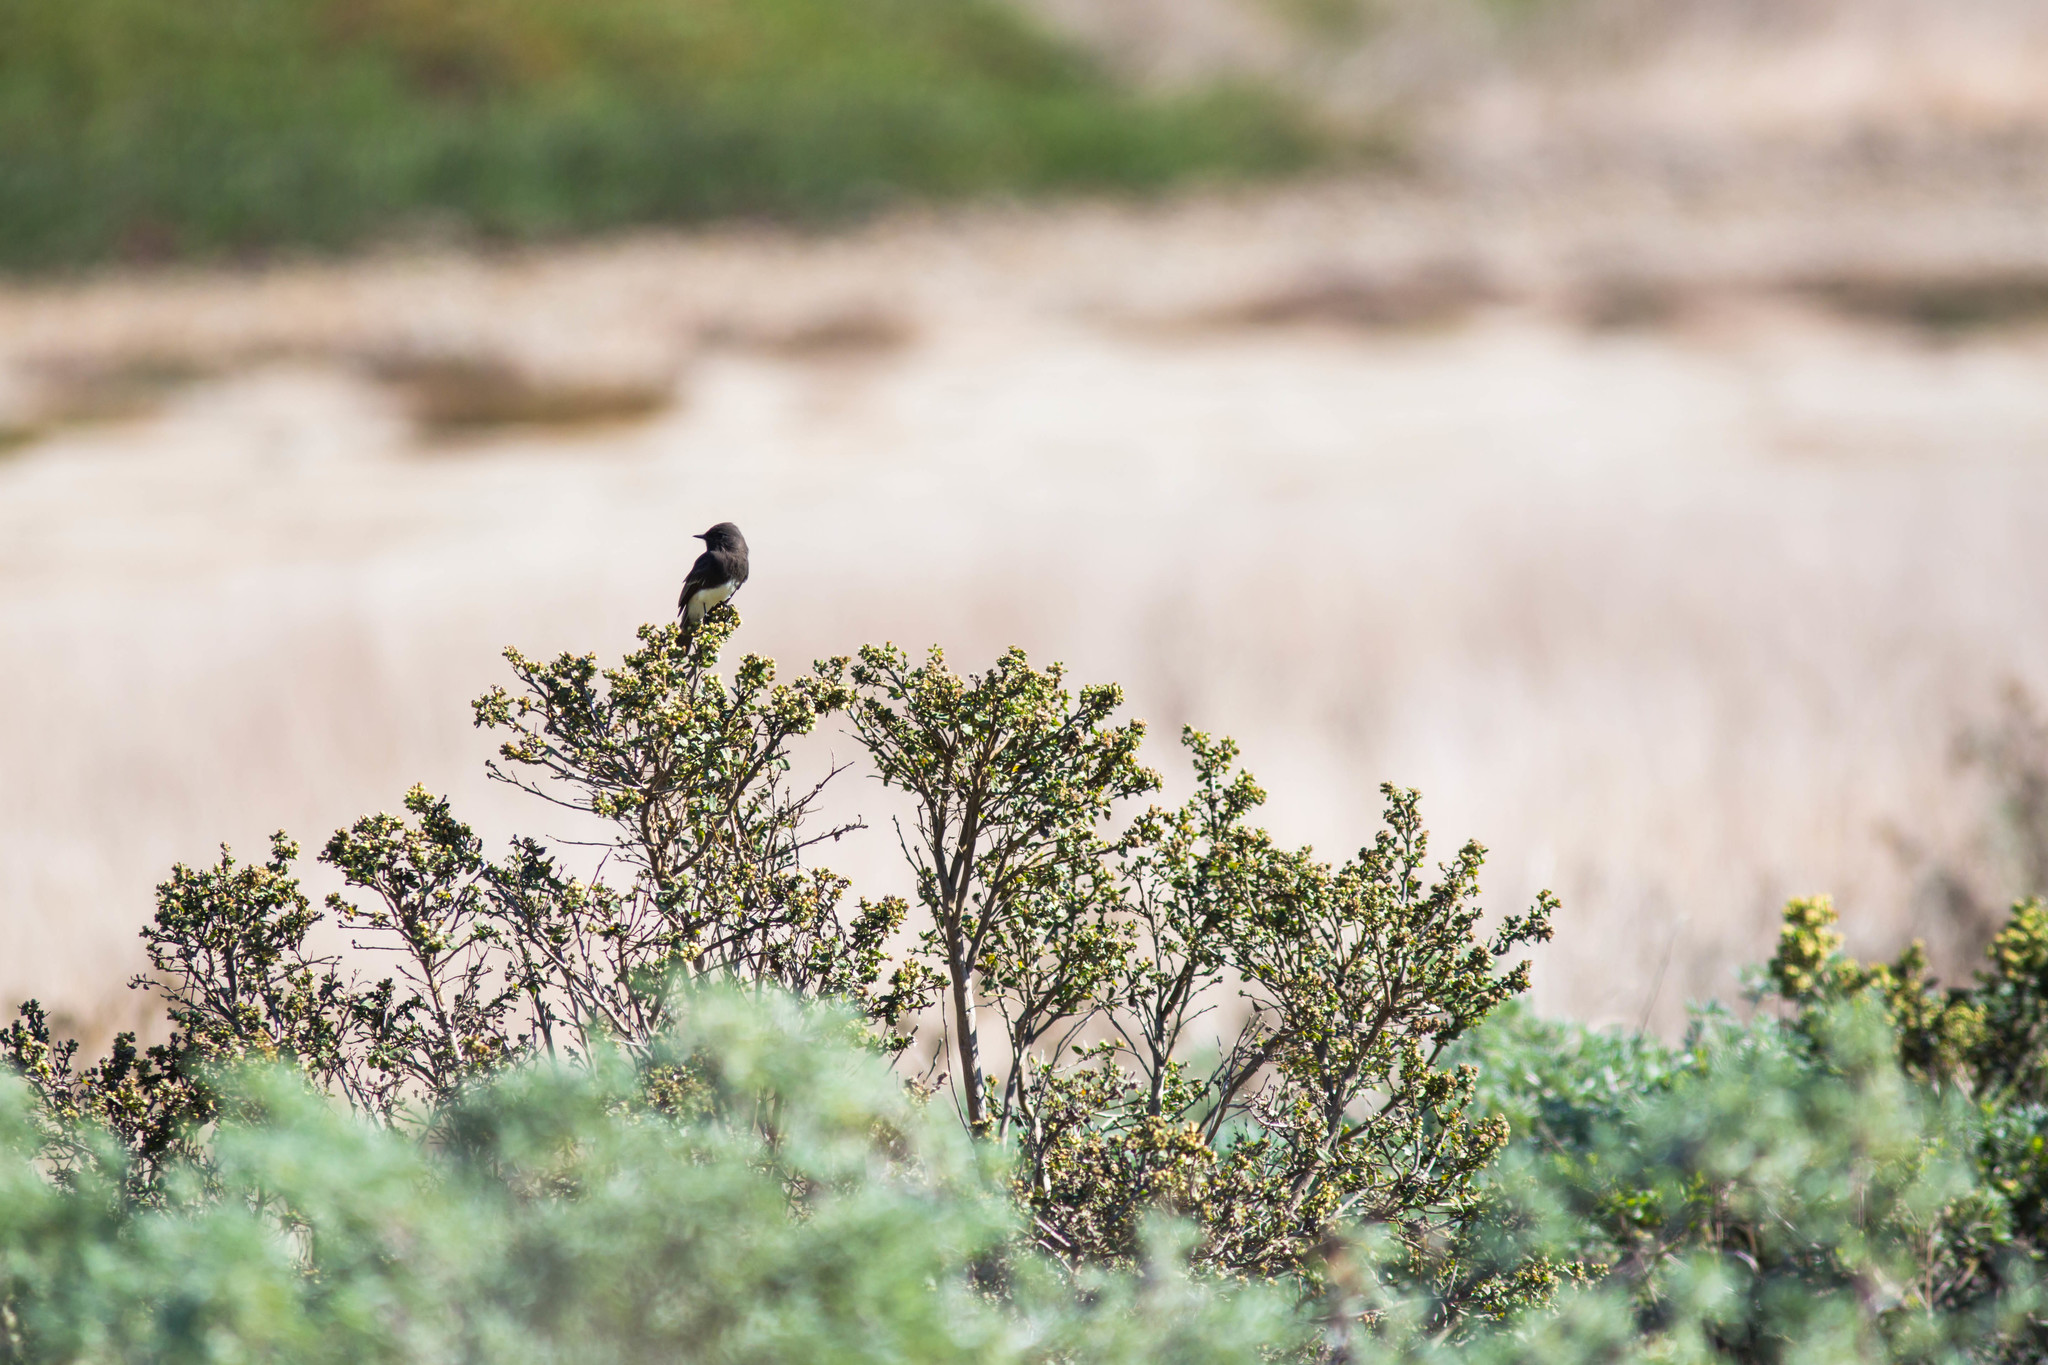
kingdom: Animalia
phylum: Chordata
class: Aves
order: Passeriformes
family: Tyrannidae
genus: Sayornis
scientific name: Sayornis nigricans
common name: Black phoebe
